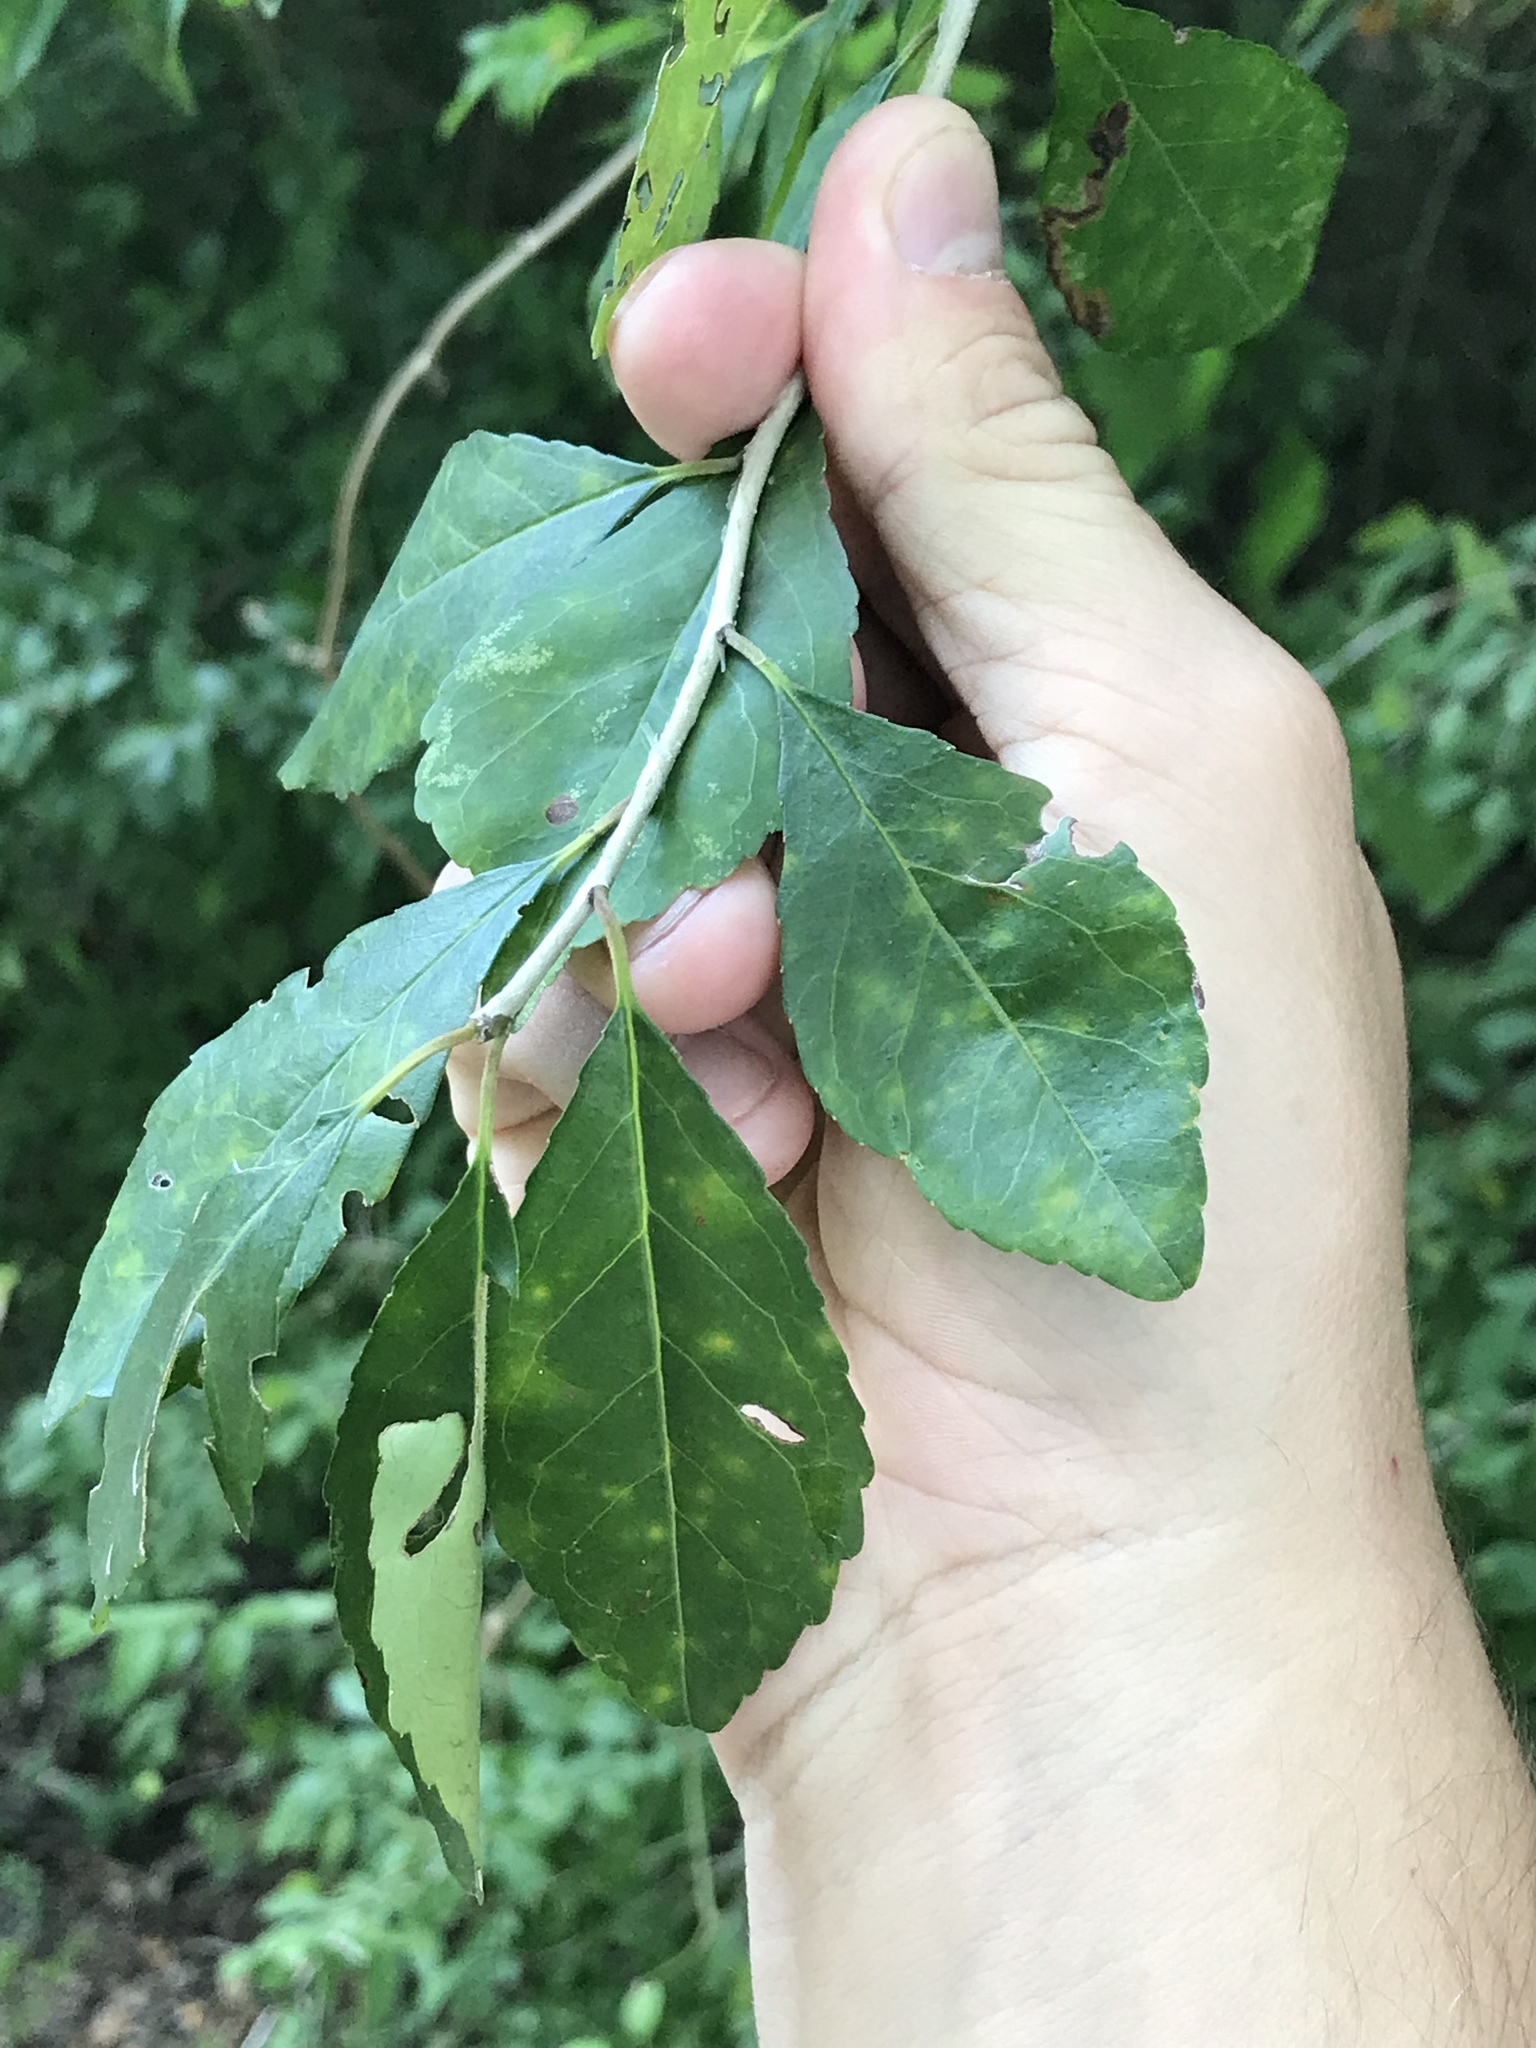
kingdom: Plantae
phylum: Tracheophyta
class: Magnoliopsida
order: Aquifoliales
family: Aquifoliaceae
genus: Ilex
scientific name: Ilex decidua
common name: Possum-haw
